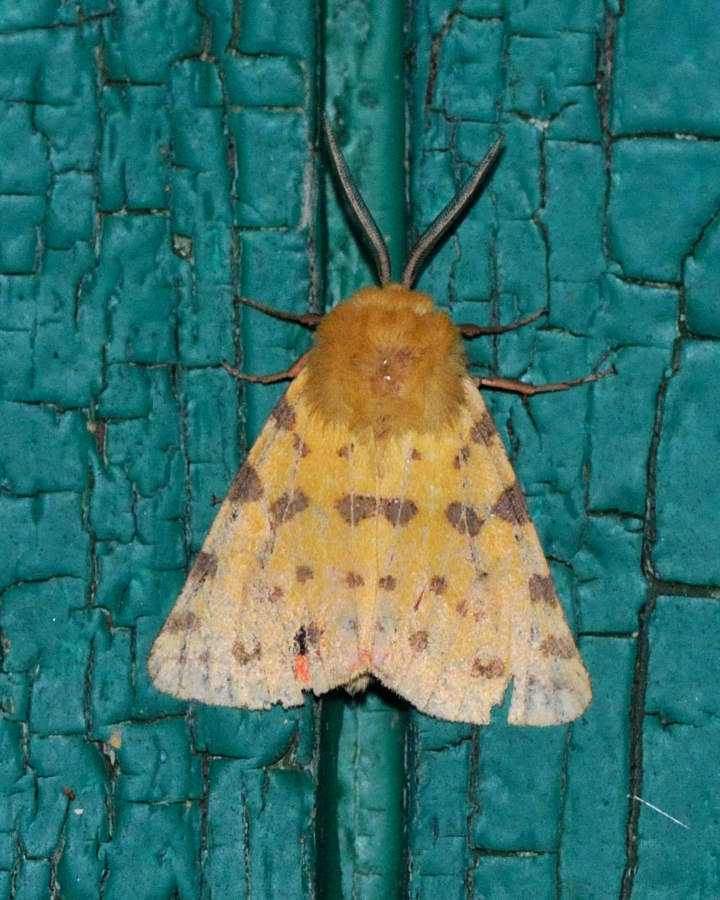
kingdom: Animalia
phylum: Arthropoda
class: Insecta
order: Lepidoptera
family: Erebidae
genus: Rhyparia
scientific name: Rhyparia purpurata
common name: Purple tiger
